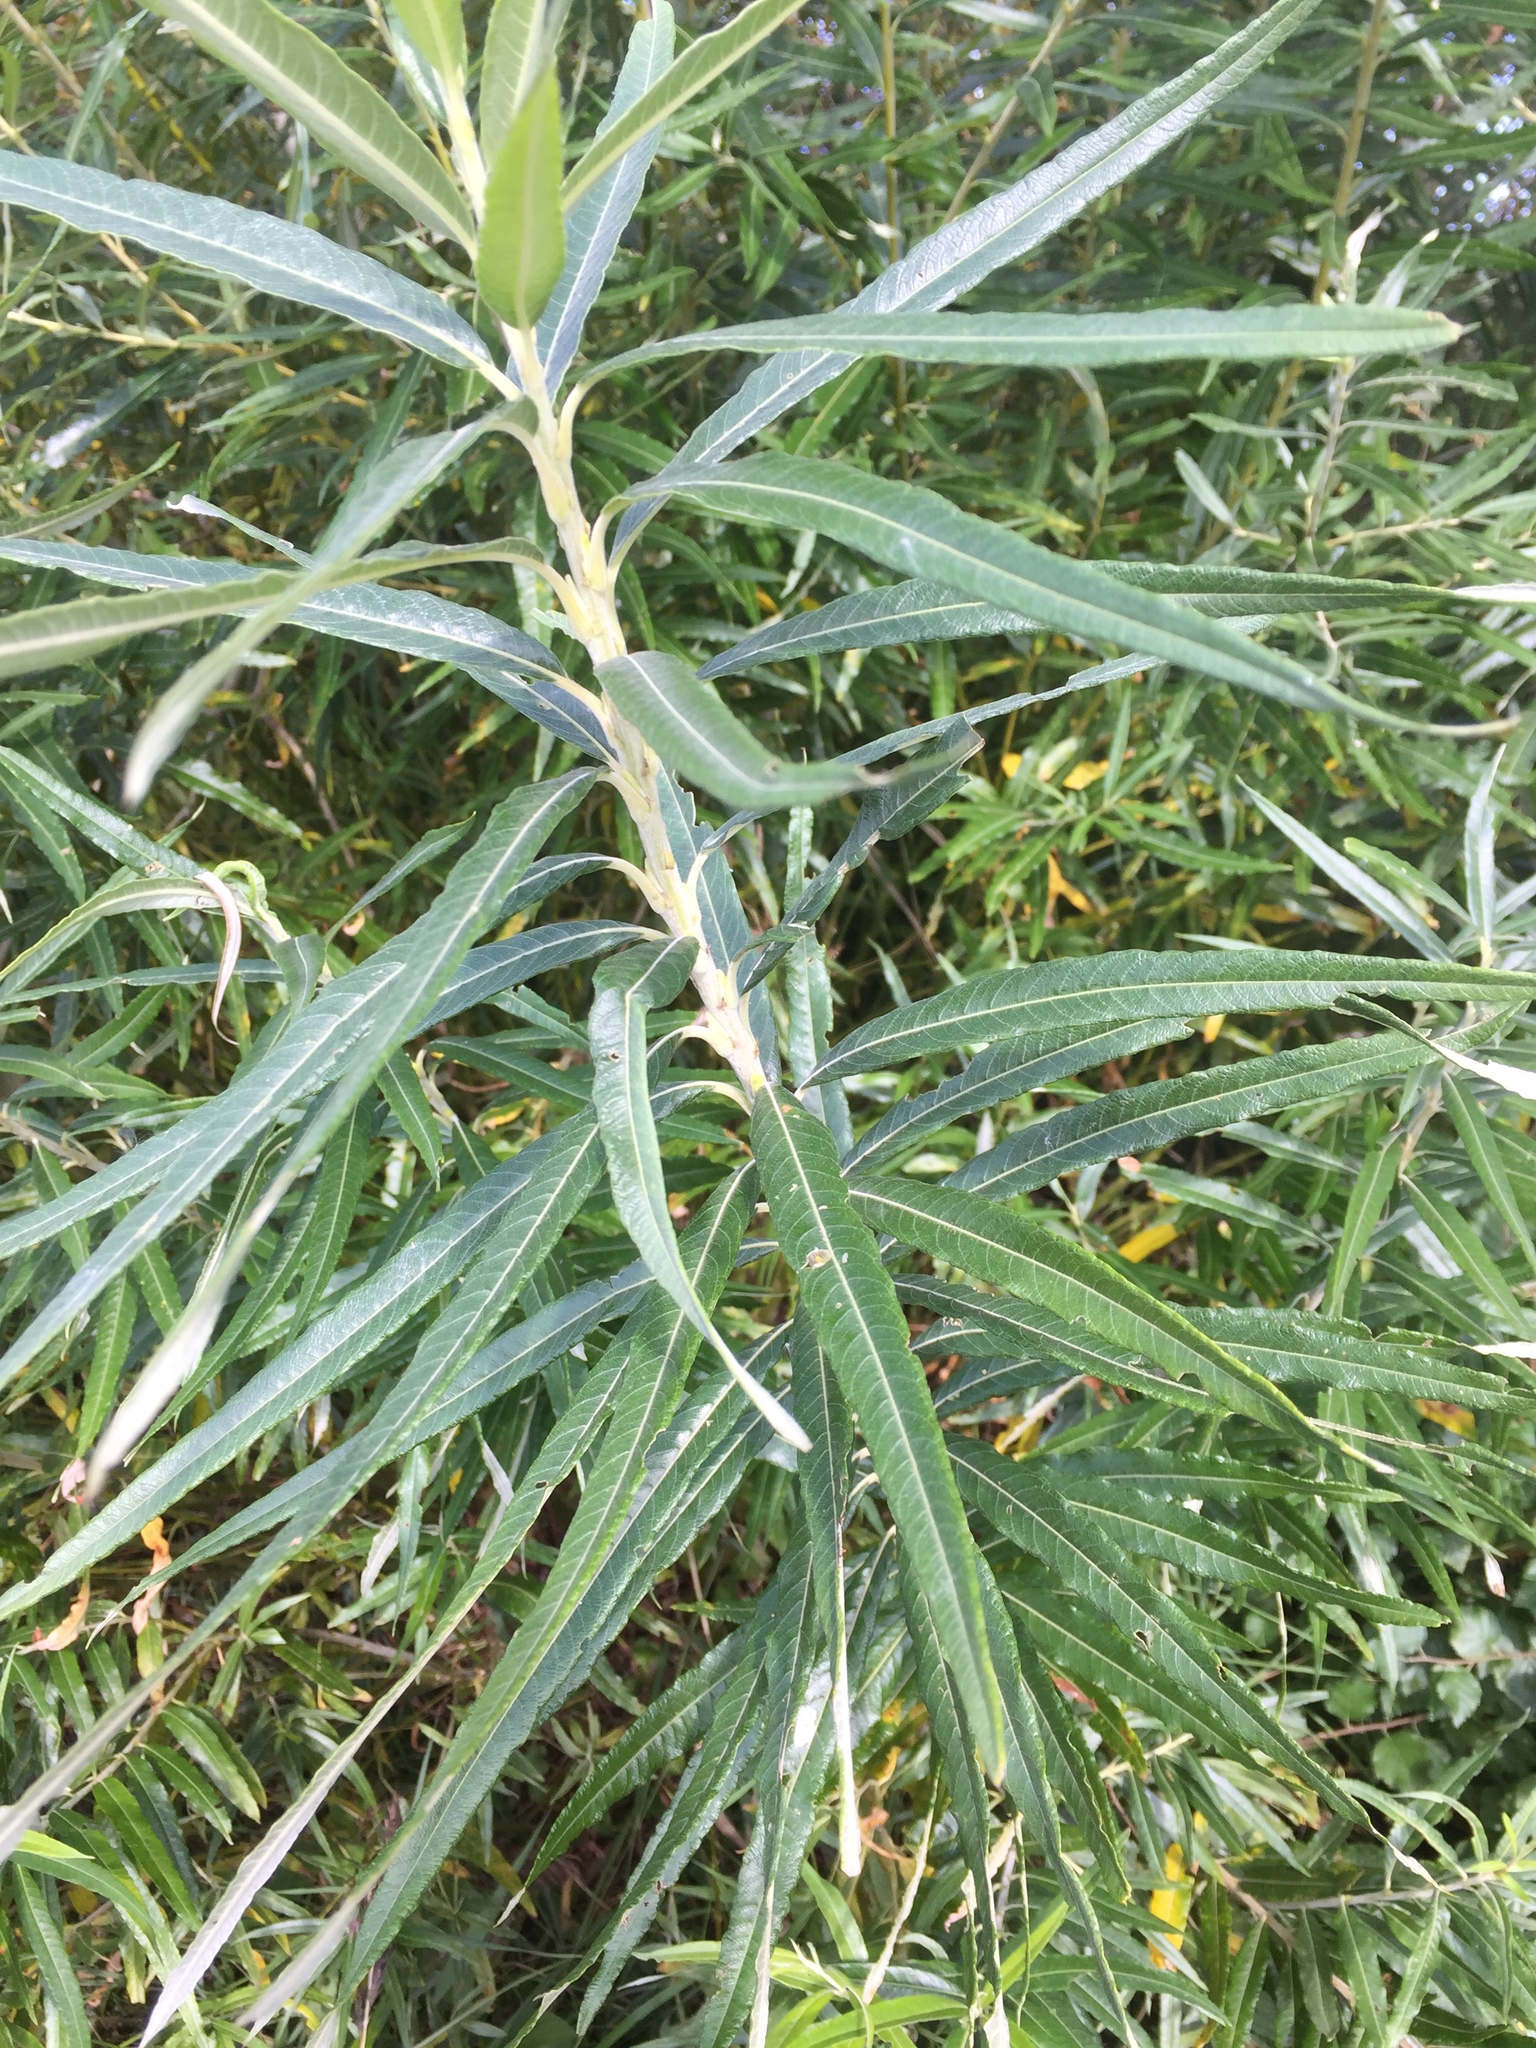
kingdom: Plantae
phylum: Tracheophyta
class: Magnoliopsida
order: Malpighiales
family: Salicaceae
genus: Salix
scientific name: Salix viminalis
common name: Osier
